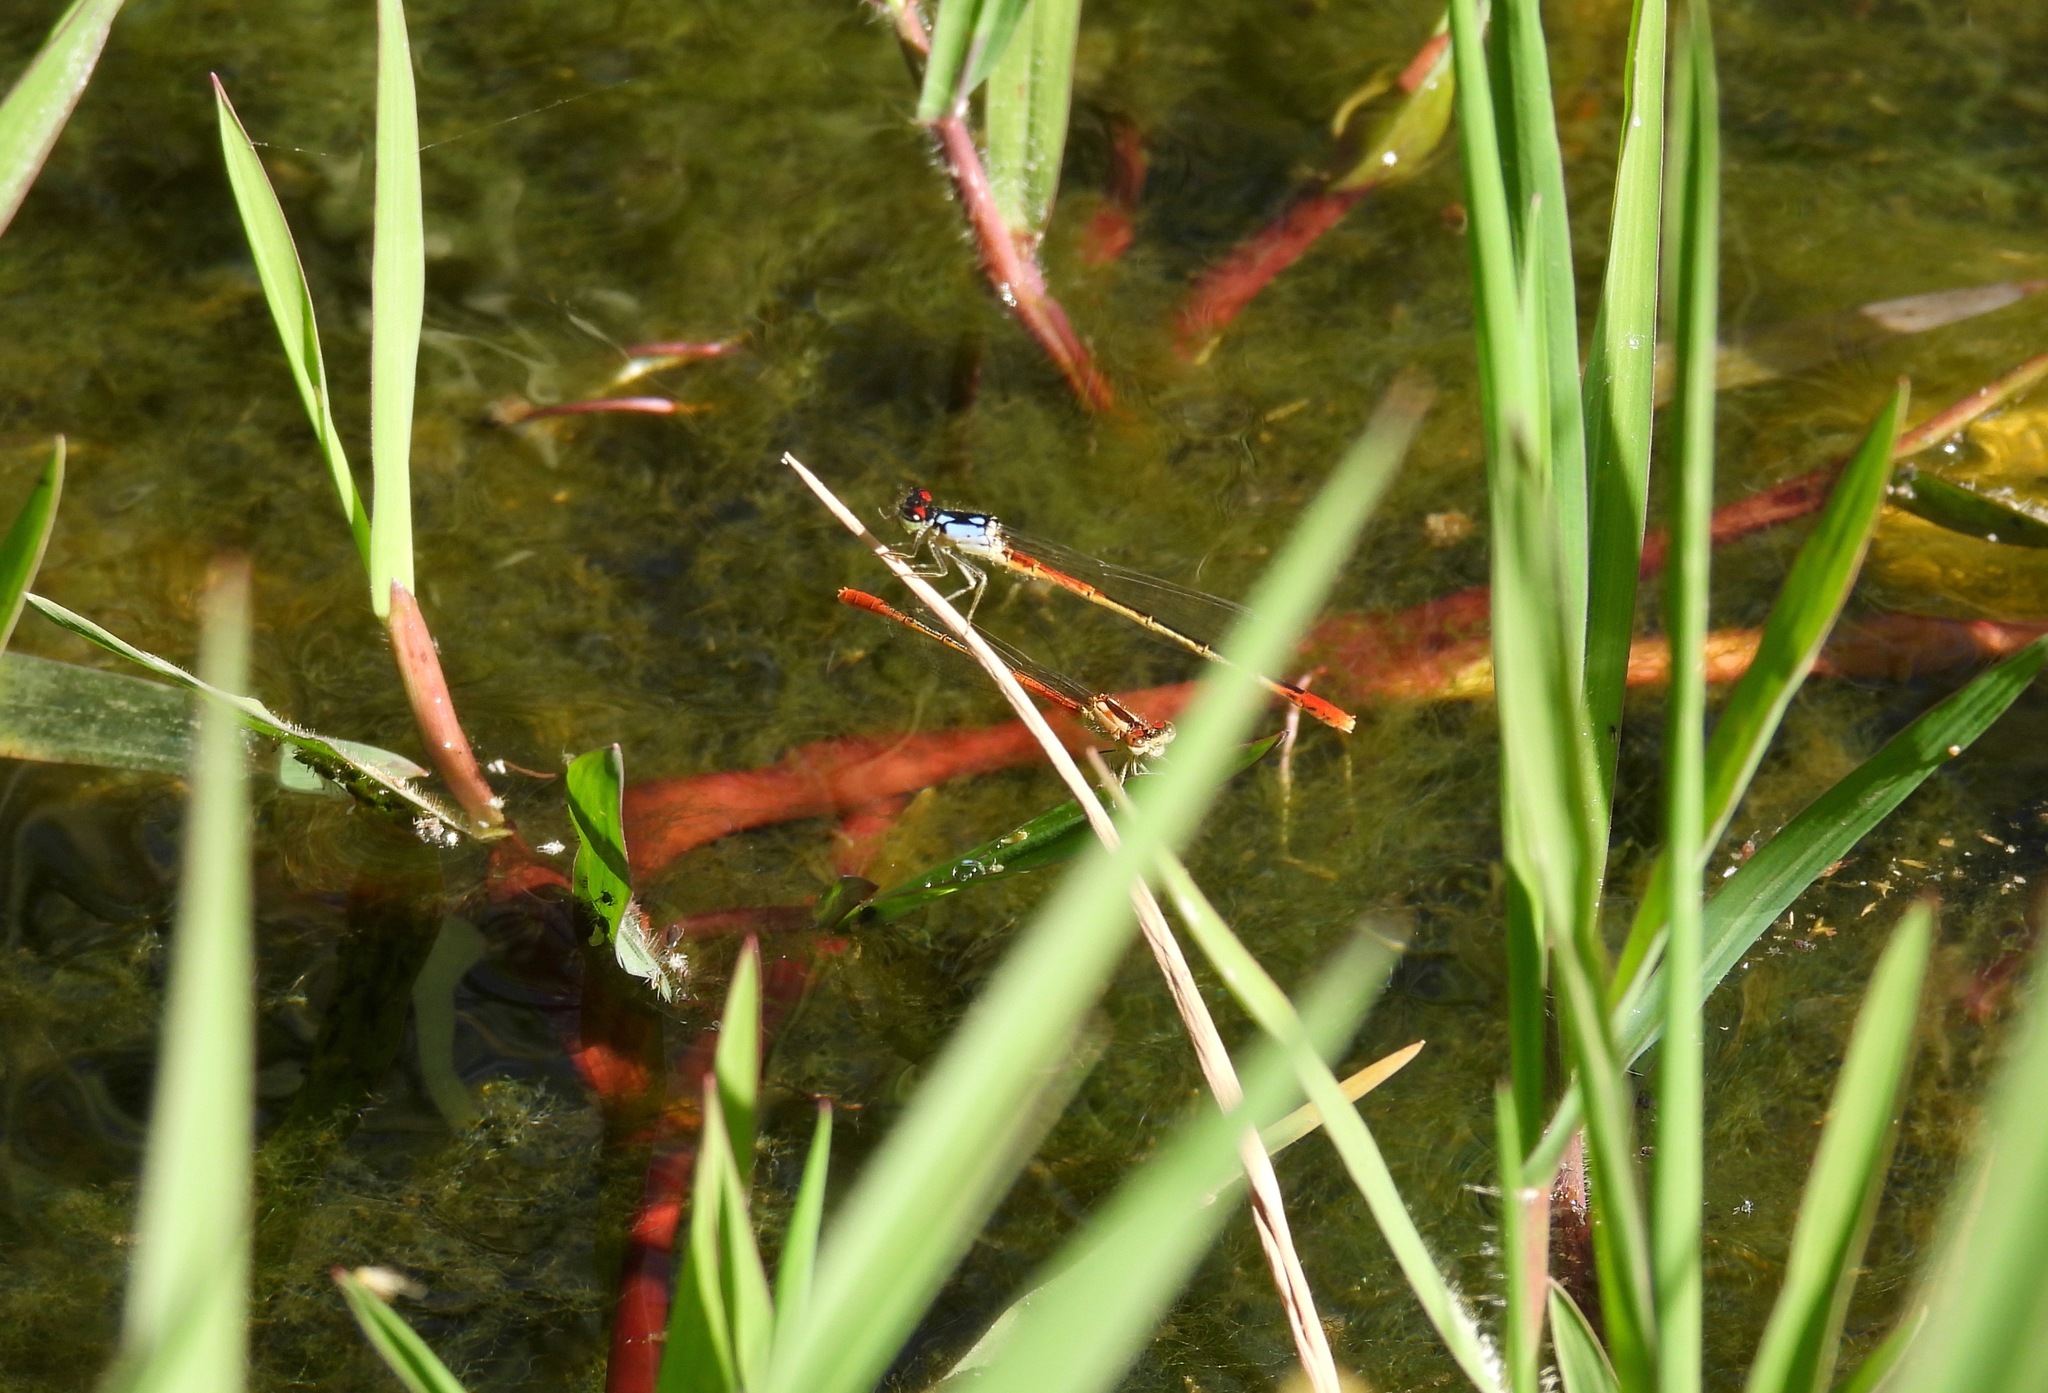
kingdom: Animalia
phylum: Arthropoda
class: Insecta
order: Odonata
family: Coenagrionidae
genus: Hesperagrion
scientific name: Hesperagrion heterodoxum
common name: Painted damsel
